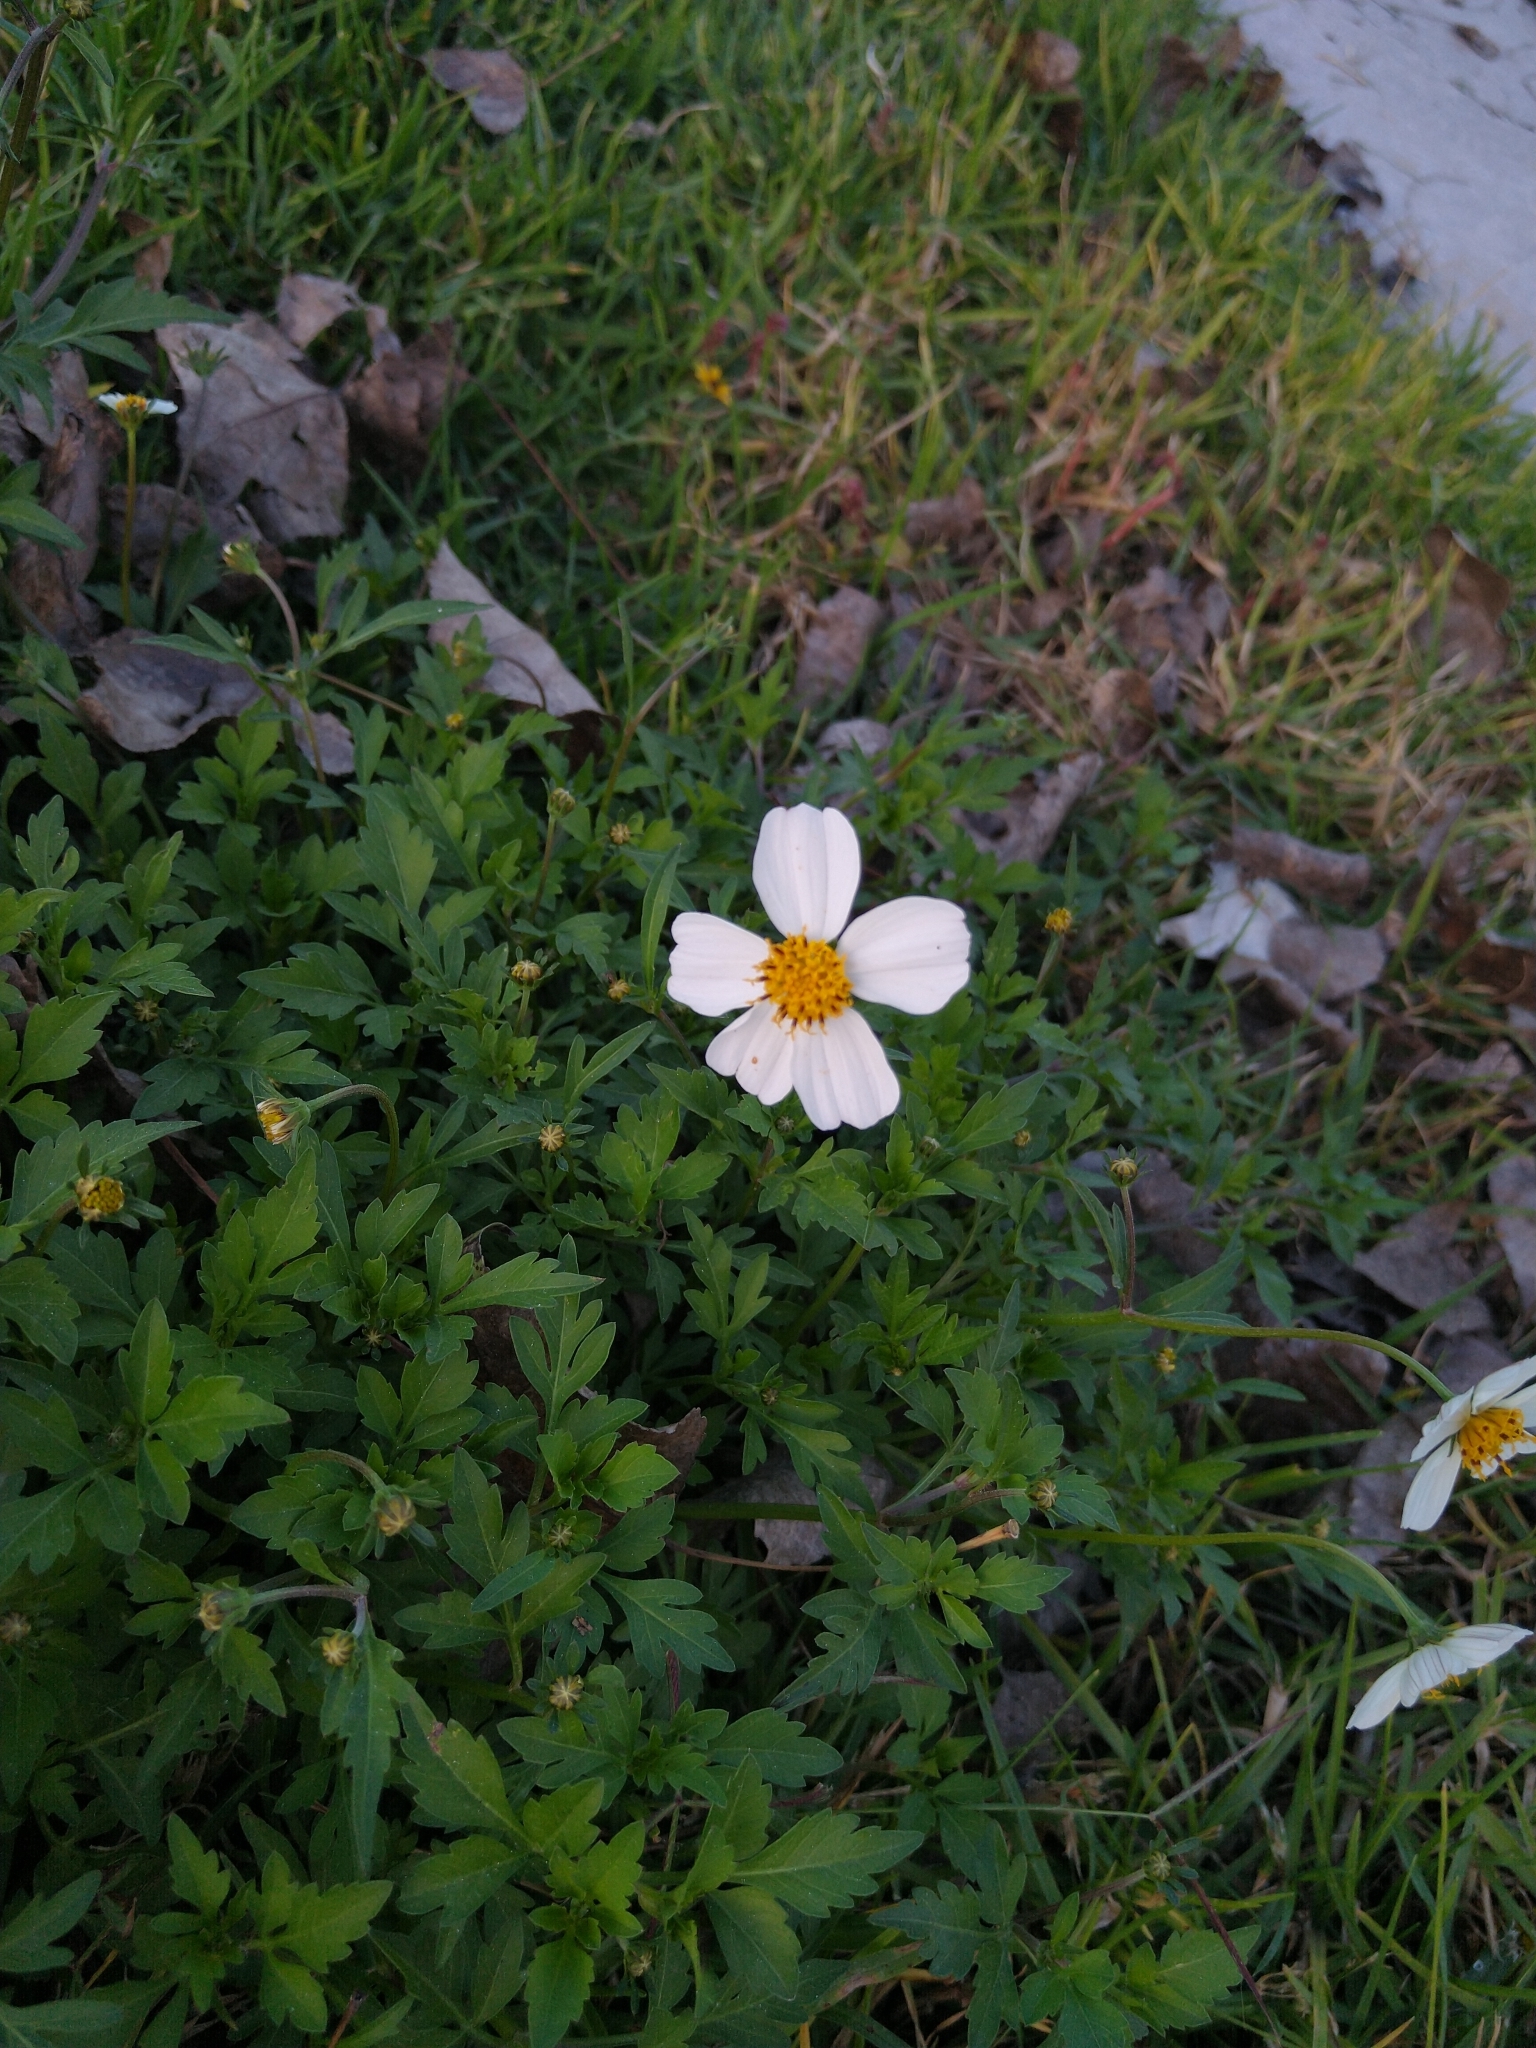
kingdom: Plantae
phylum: Tracheophyta
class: Magnoliopsida
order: Asterales
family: Asteraceae
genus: Bidens
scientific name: Bidens odorata
